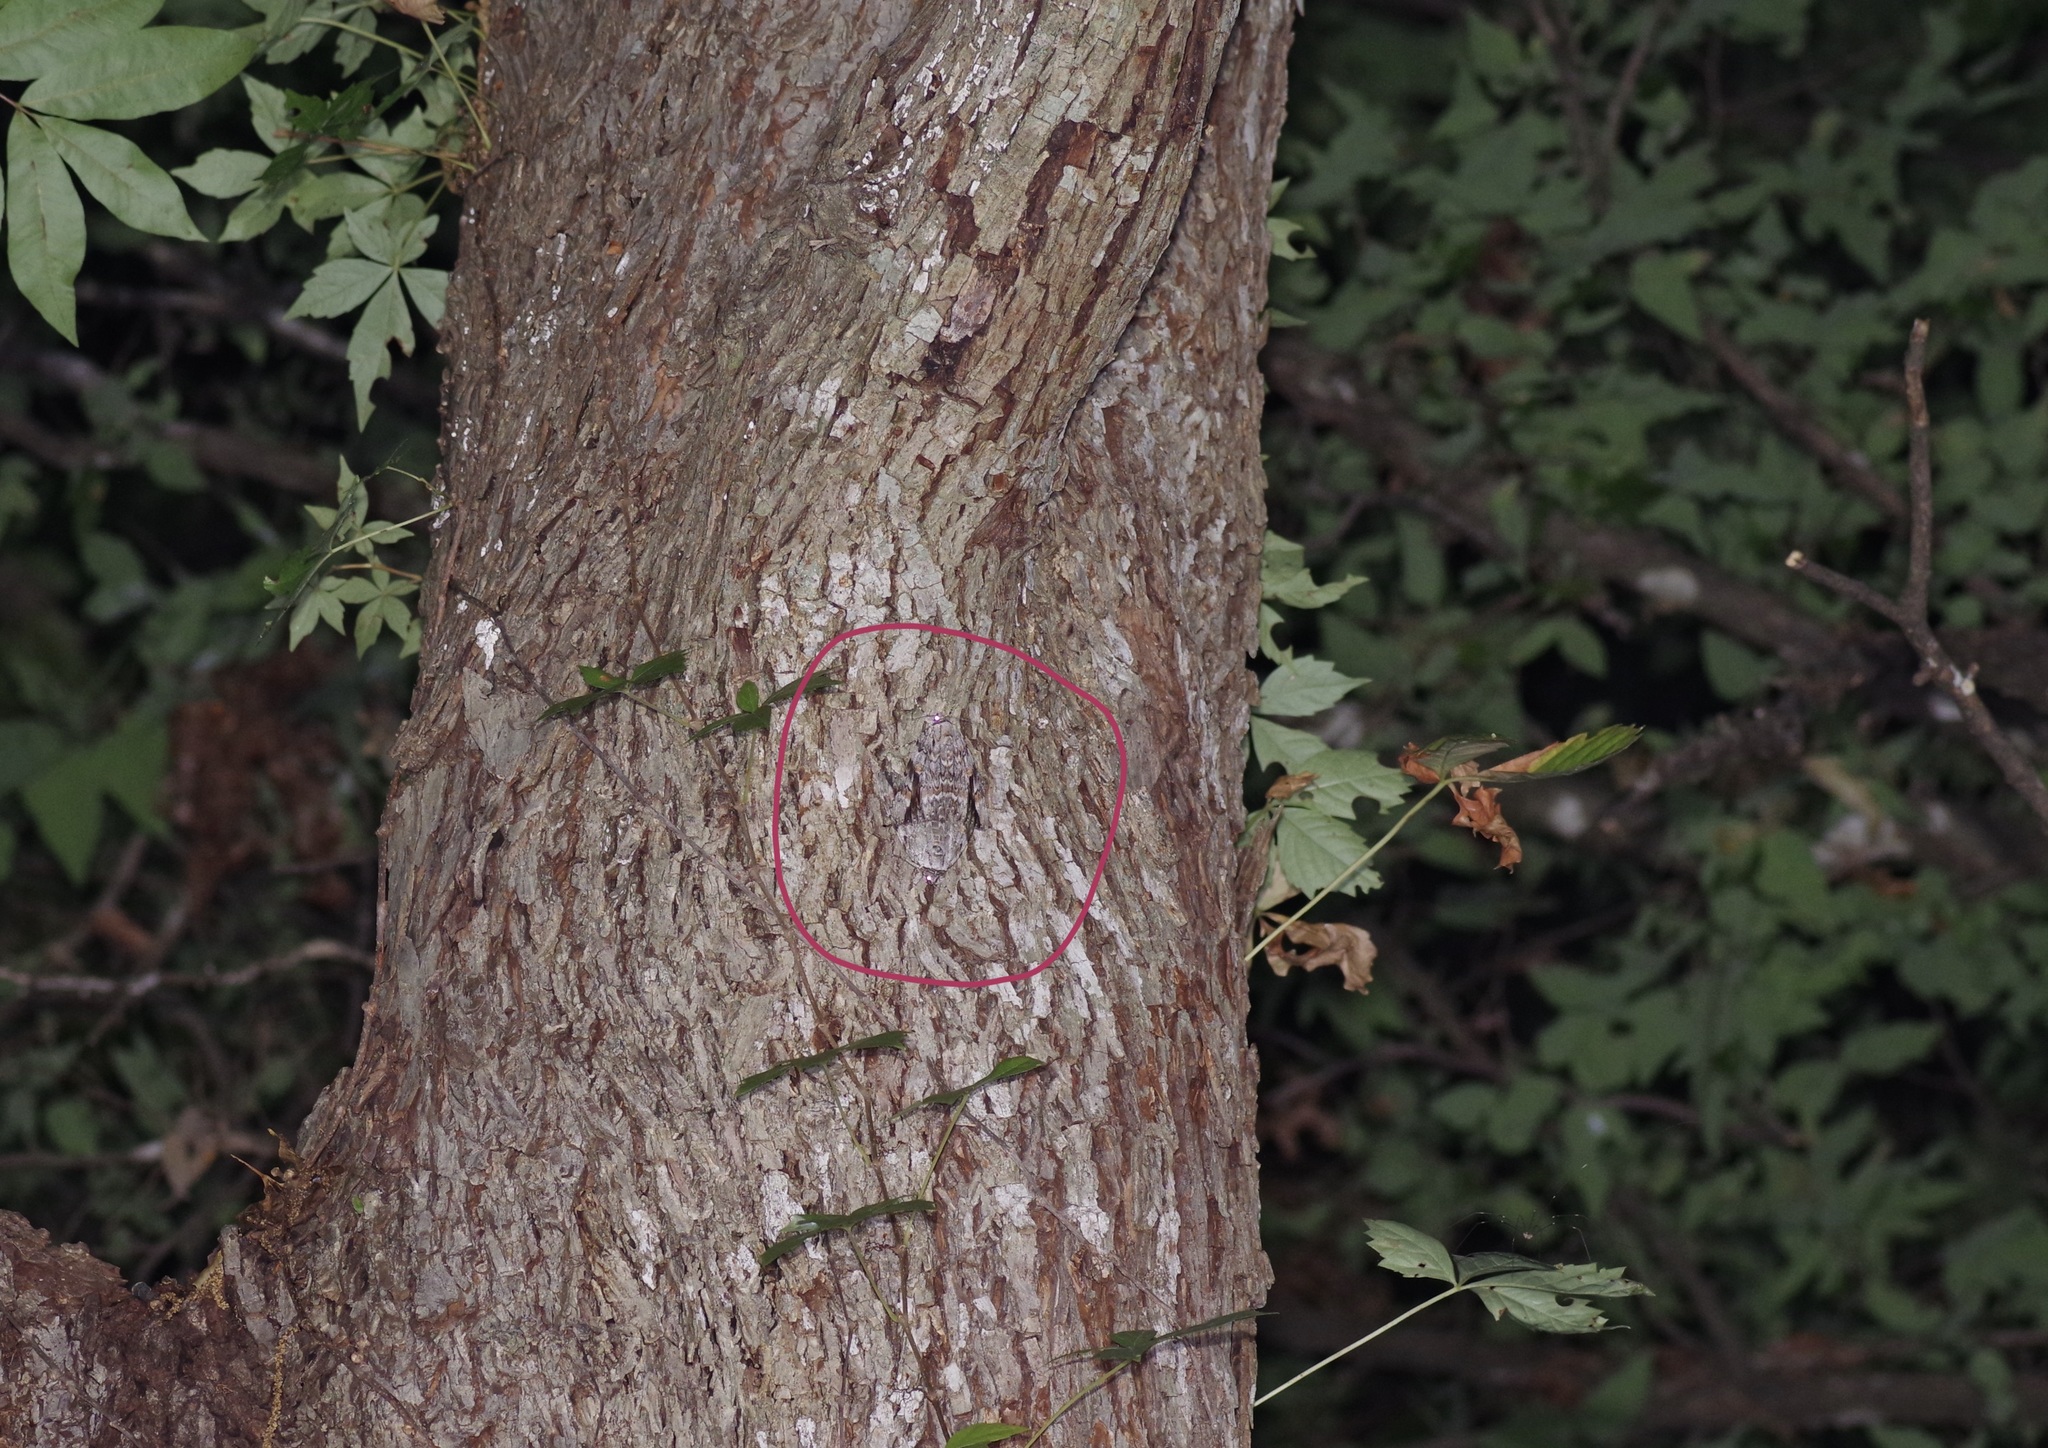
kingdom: Animalia
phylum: Arthropoda
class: Insecta
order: Lepidoptera
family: Erebidae
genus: Catocala
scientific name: Catocala maestosa
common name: Sad underwing
